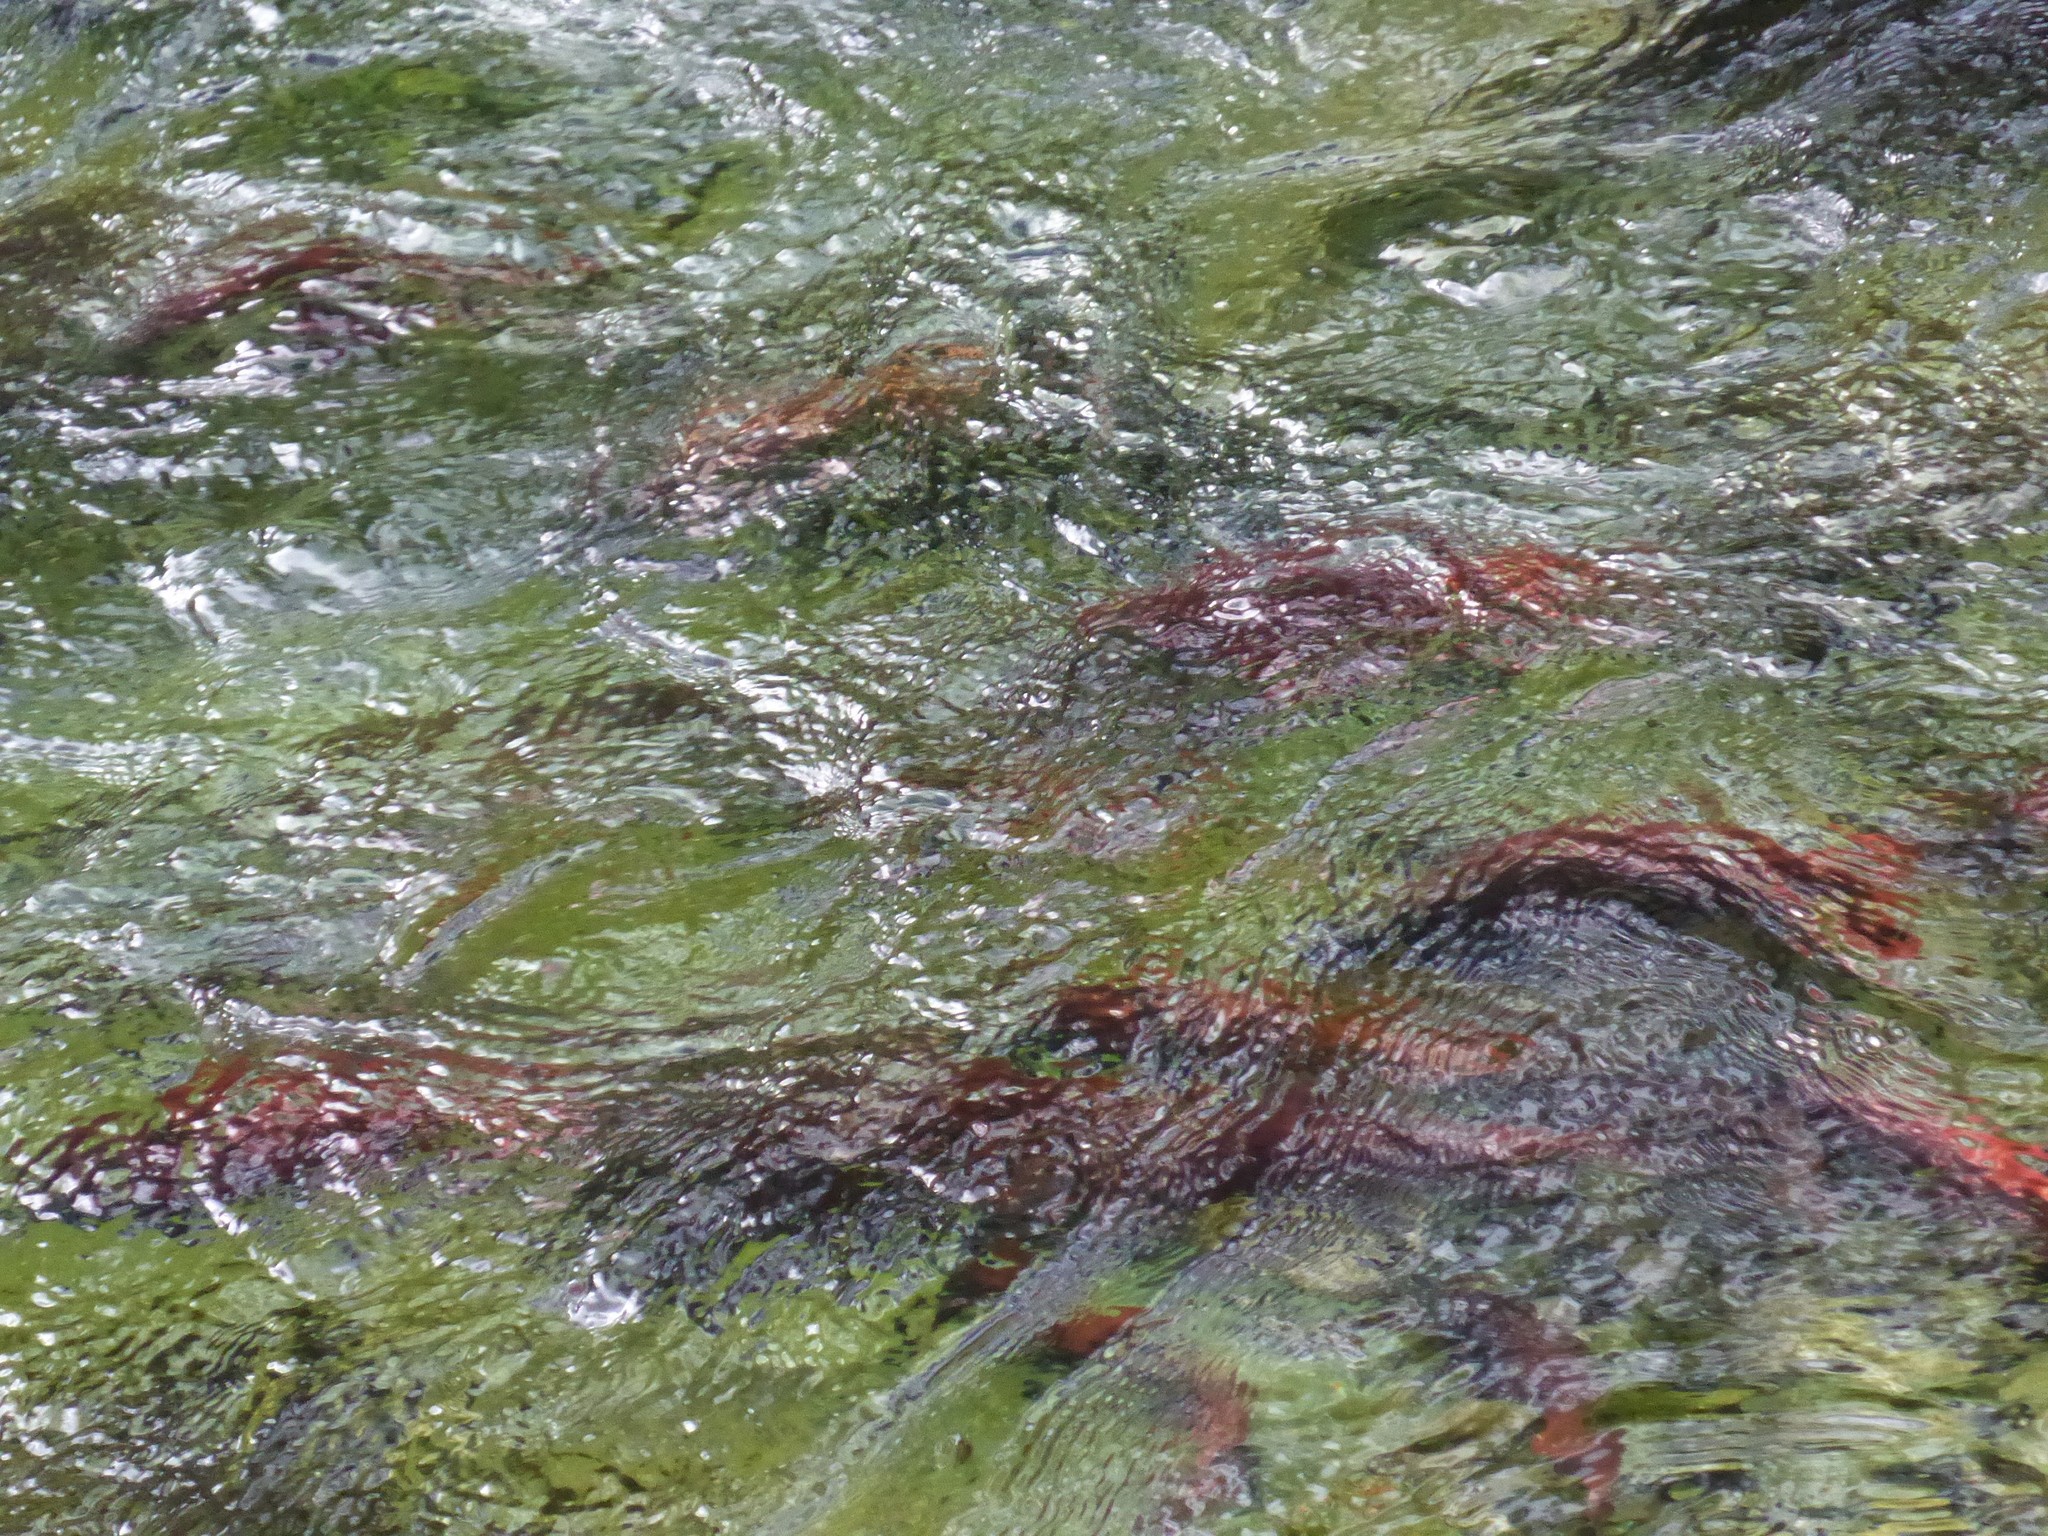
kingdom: Animalia
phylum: Chordata
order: Salmoniformes
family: Salmonidae
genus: Oncorhynchus
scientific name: Oncorhynchus nerka
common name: Sockeye salmon
